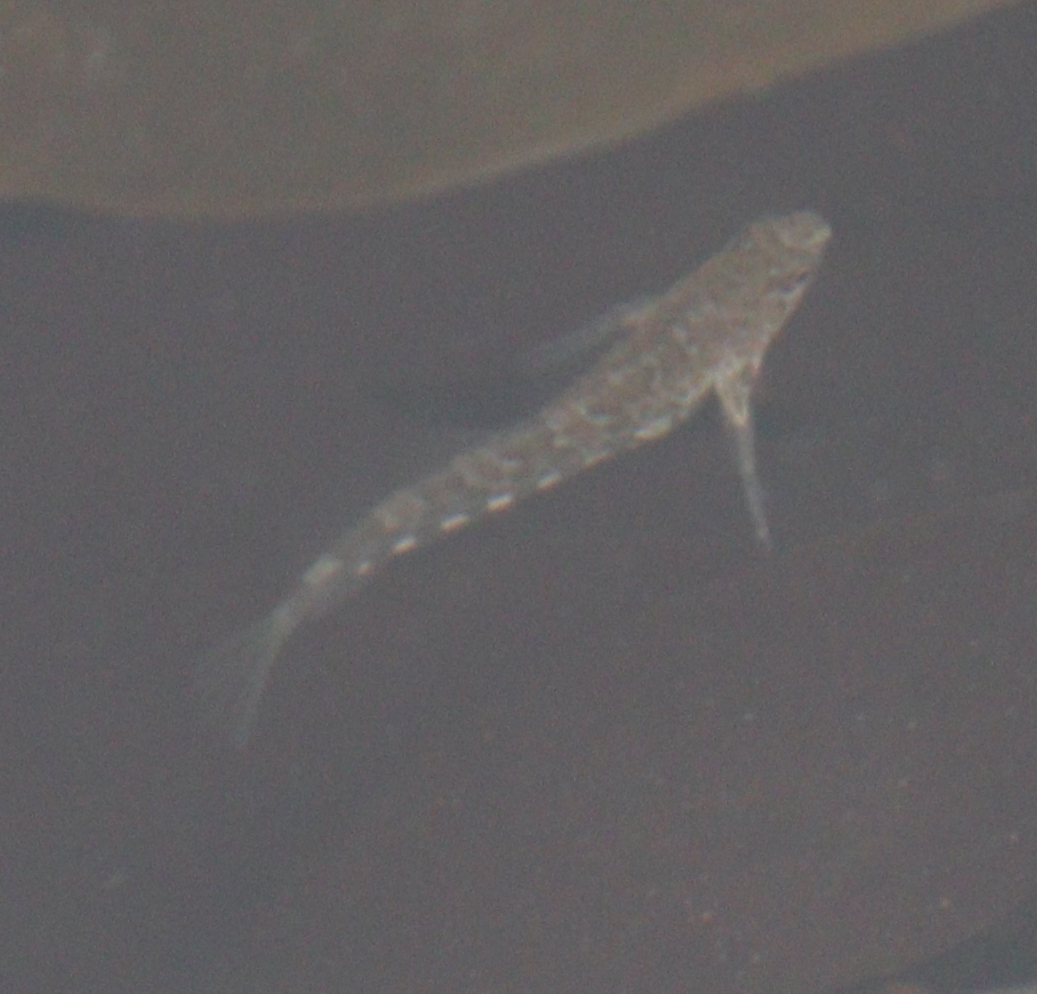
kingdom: Animalia
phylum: Chordata
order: Perciformes
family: Blenniidae
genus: Lipophrys
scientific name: Lipophrys pholis
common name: Shanny
